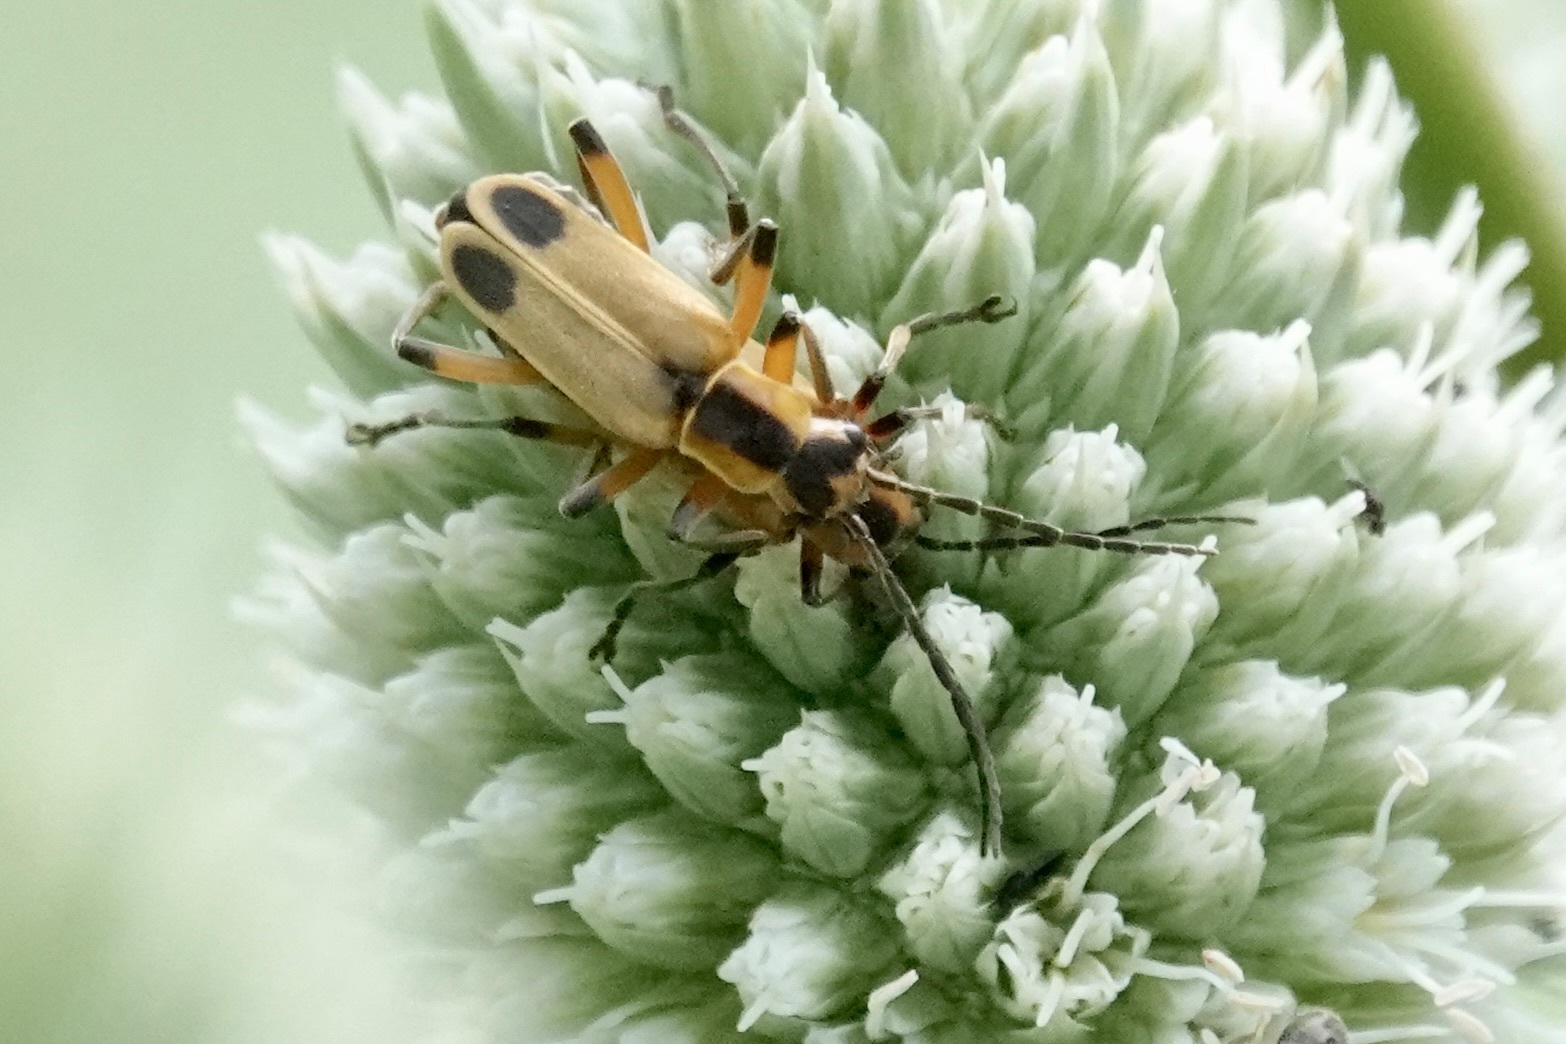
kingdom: Animalia
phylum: Arthropoda
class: Insecta
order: Coleoptera
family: Cantharidae
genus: Chauliognathus
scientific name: Chauliognathus marginatus
